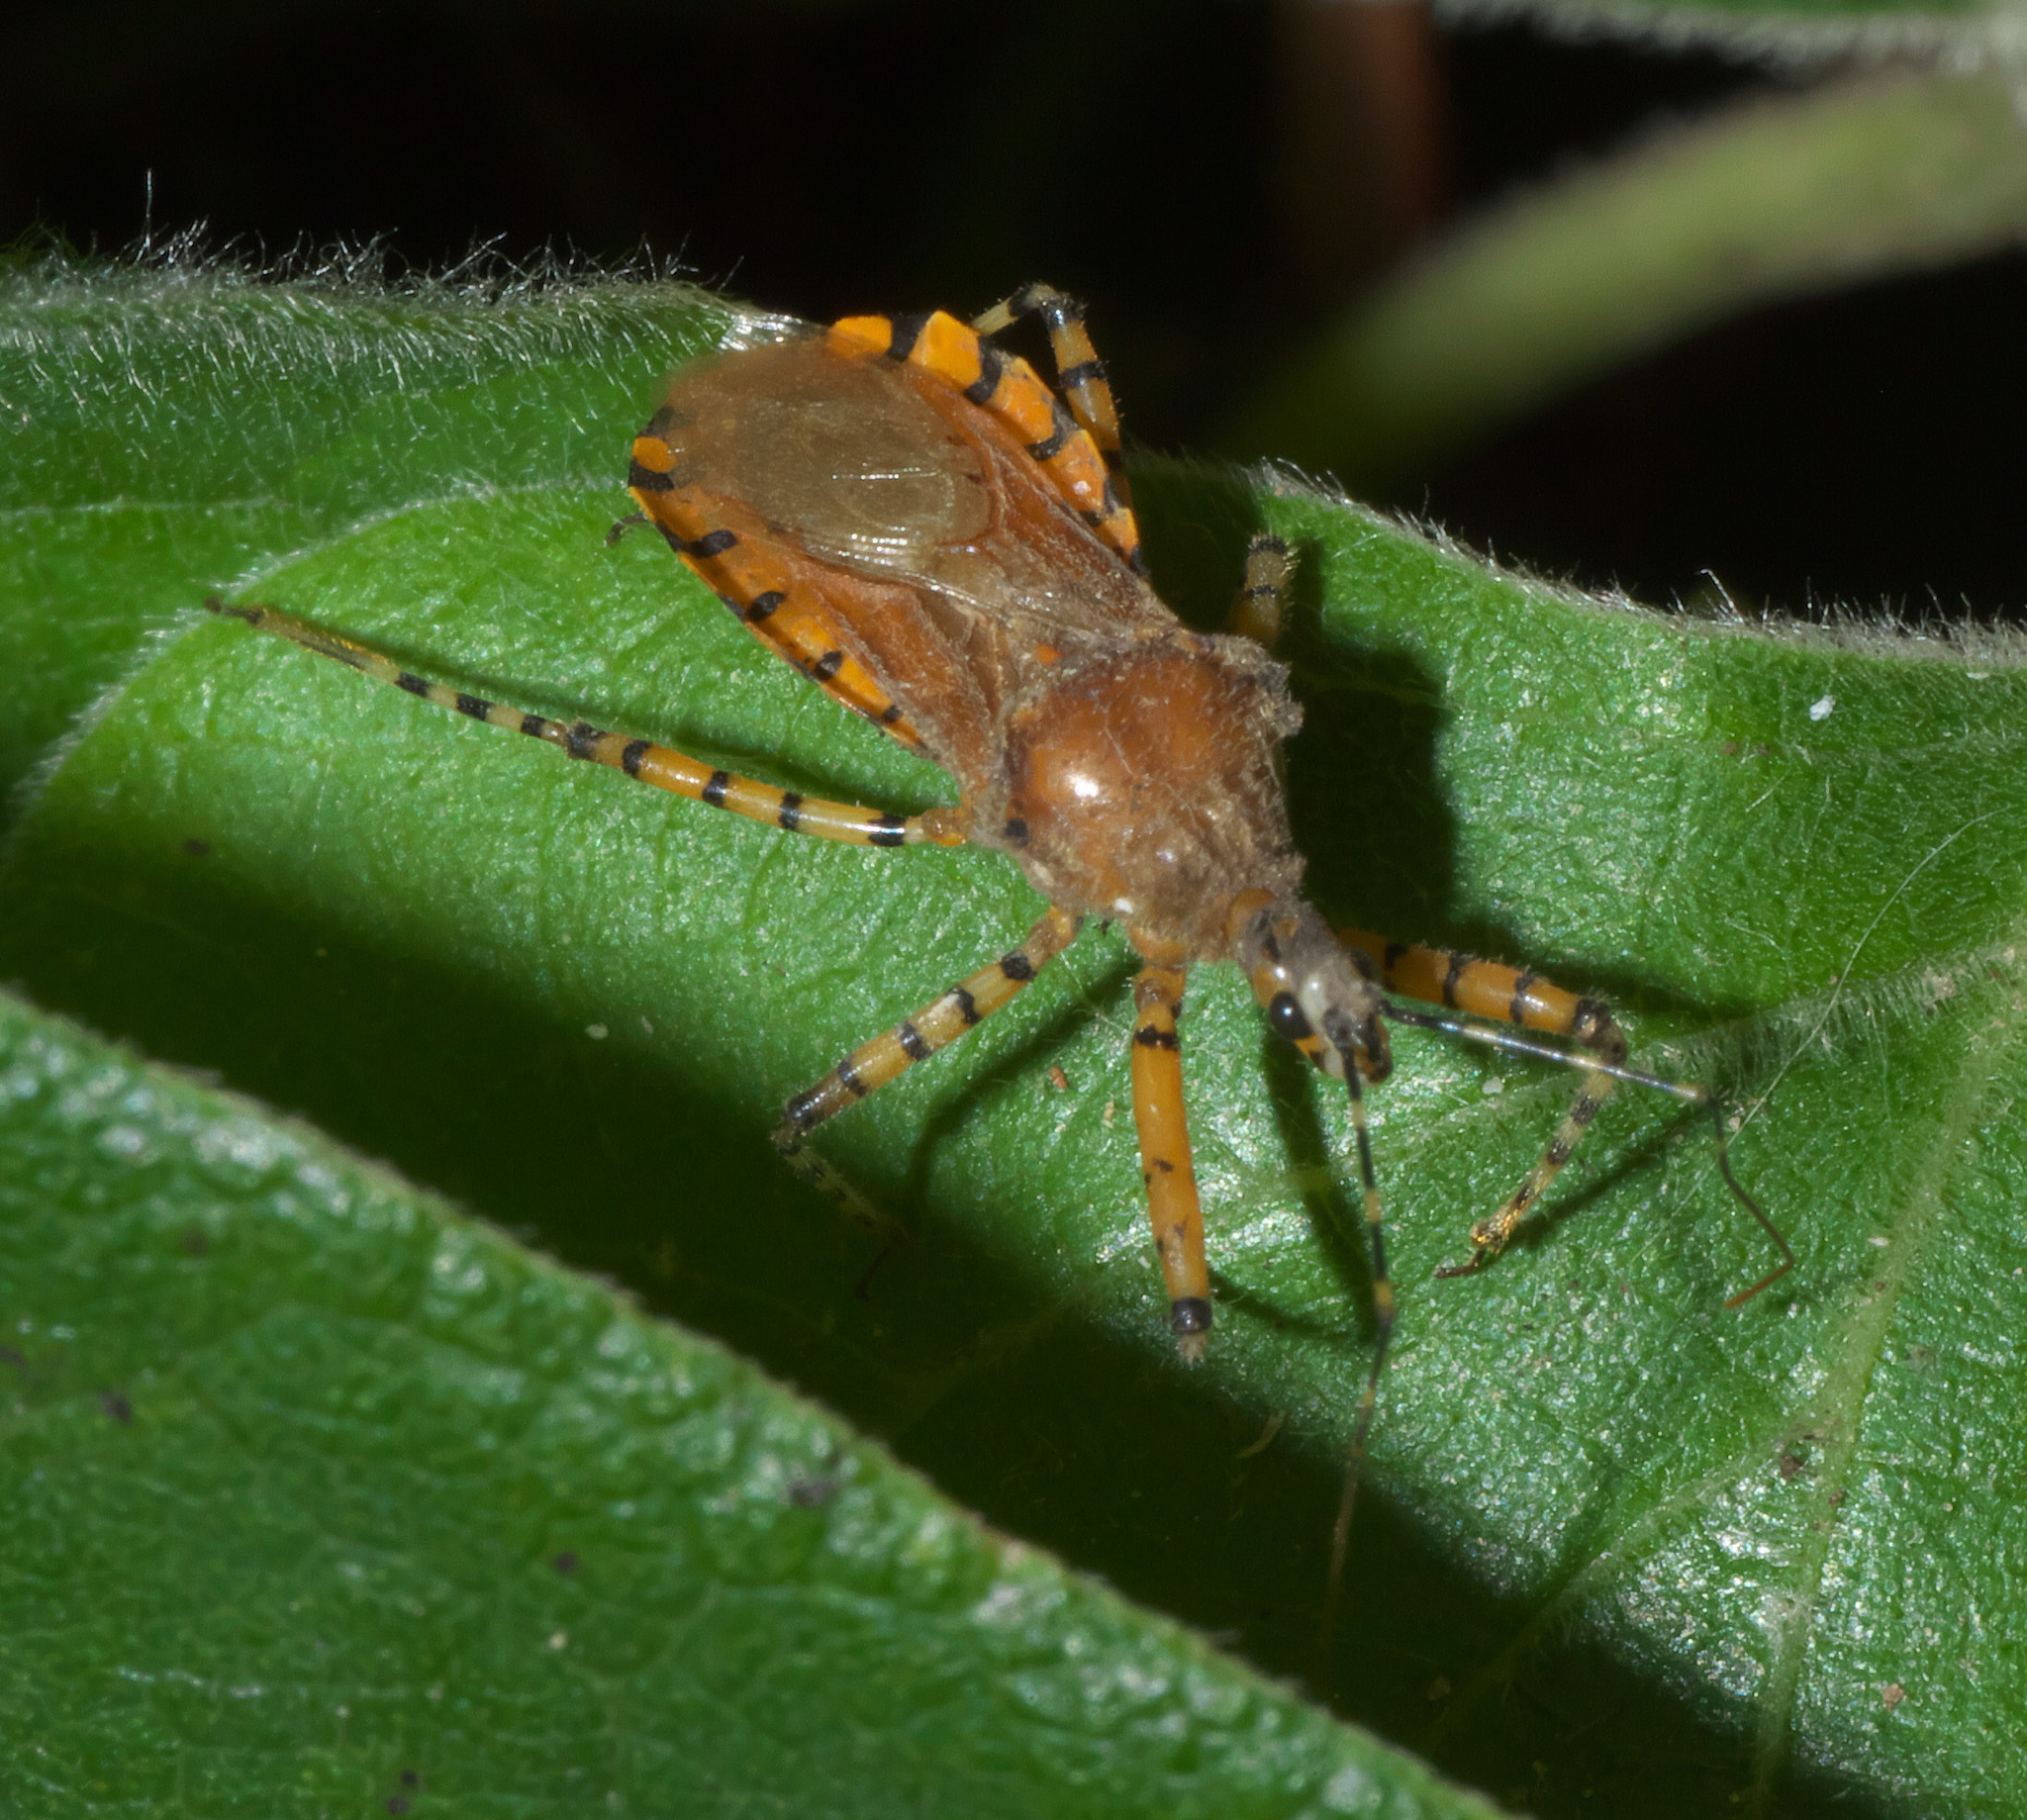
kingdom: Animalia
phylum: Arthropoda
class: Insecta
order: Hemiptera
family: Reduviidae
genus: Pselliopus
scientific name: Pselliopus barberi
